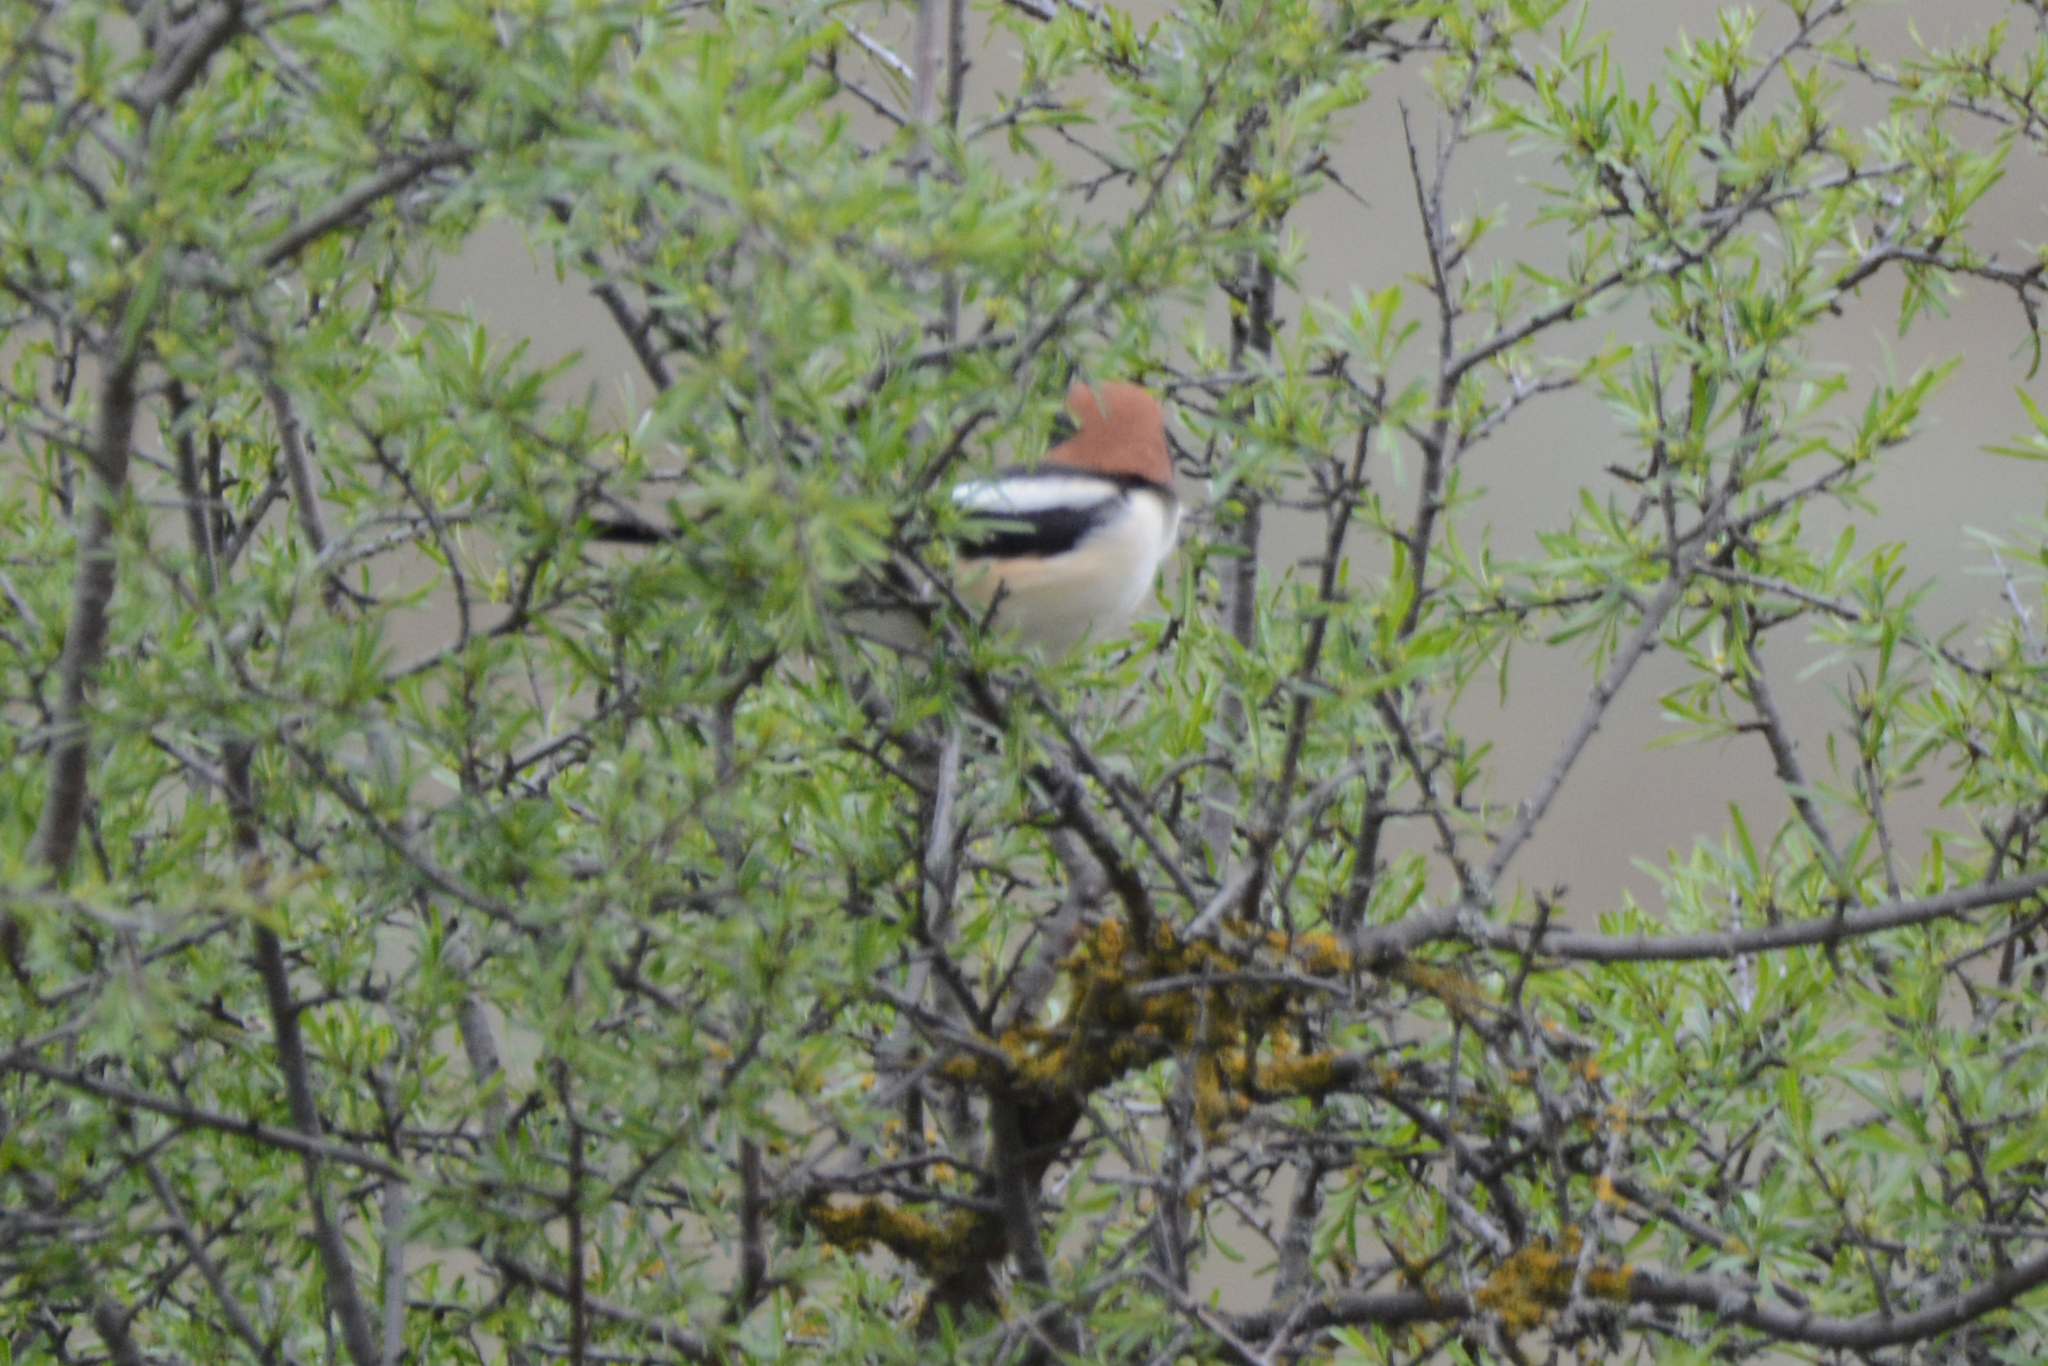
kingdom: Animalia
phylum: Chordata
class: Aves
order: Passeriformes
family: Laniidae
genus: Lanius
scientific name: Lanius senator
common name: Woodchat shrike
